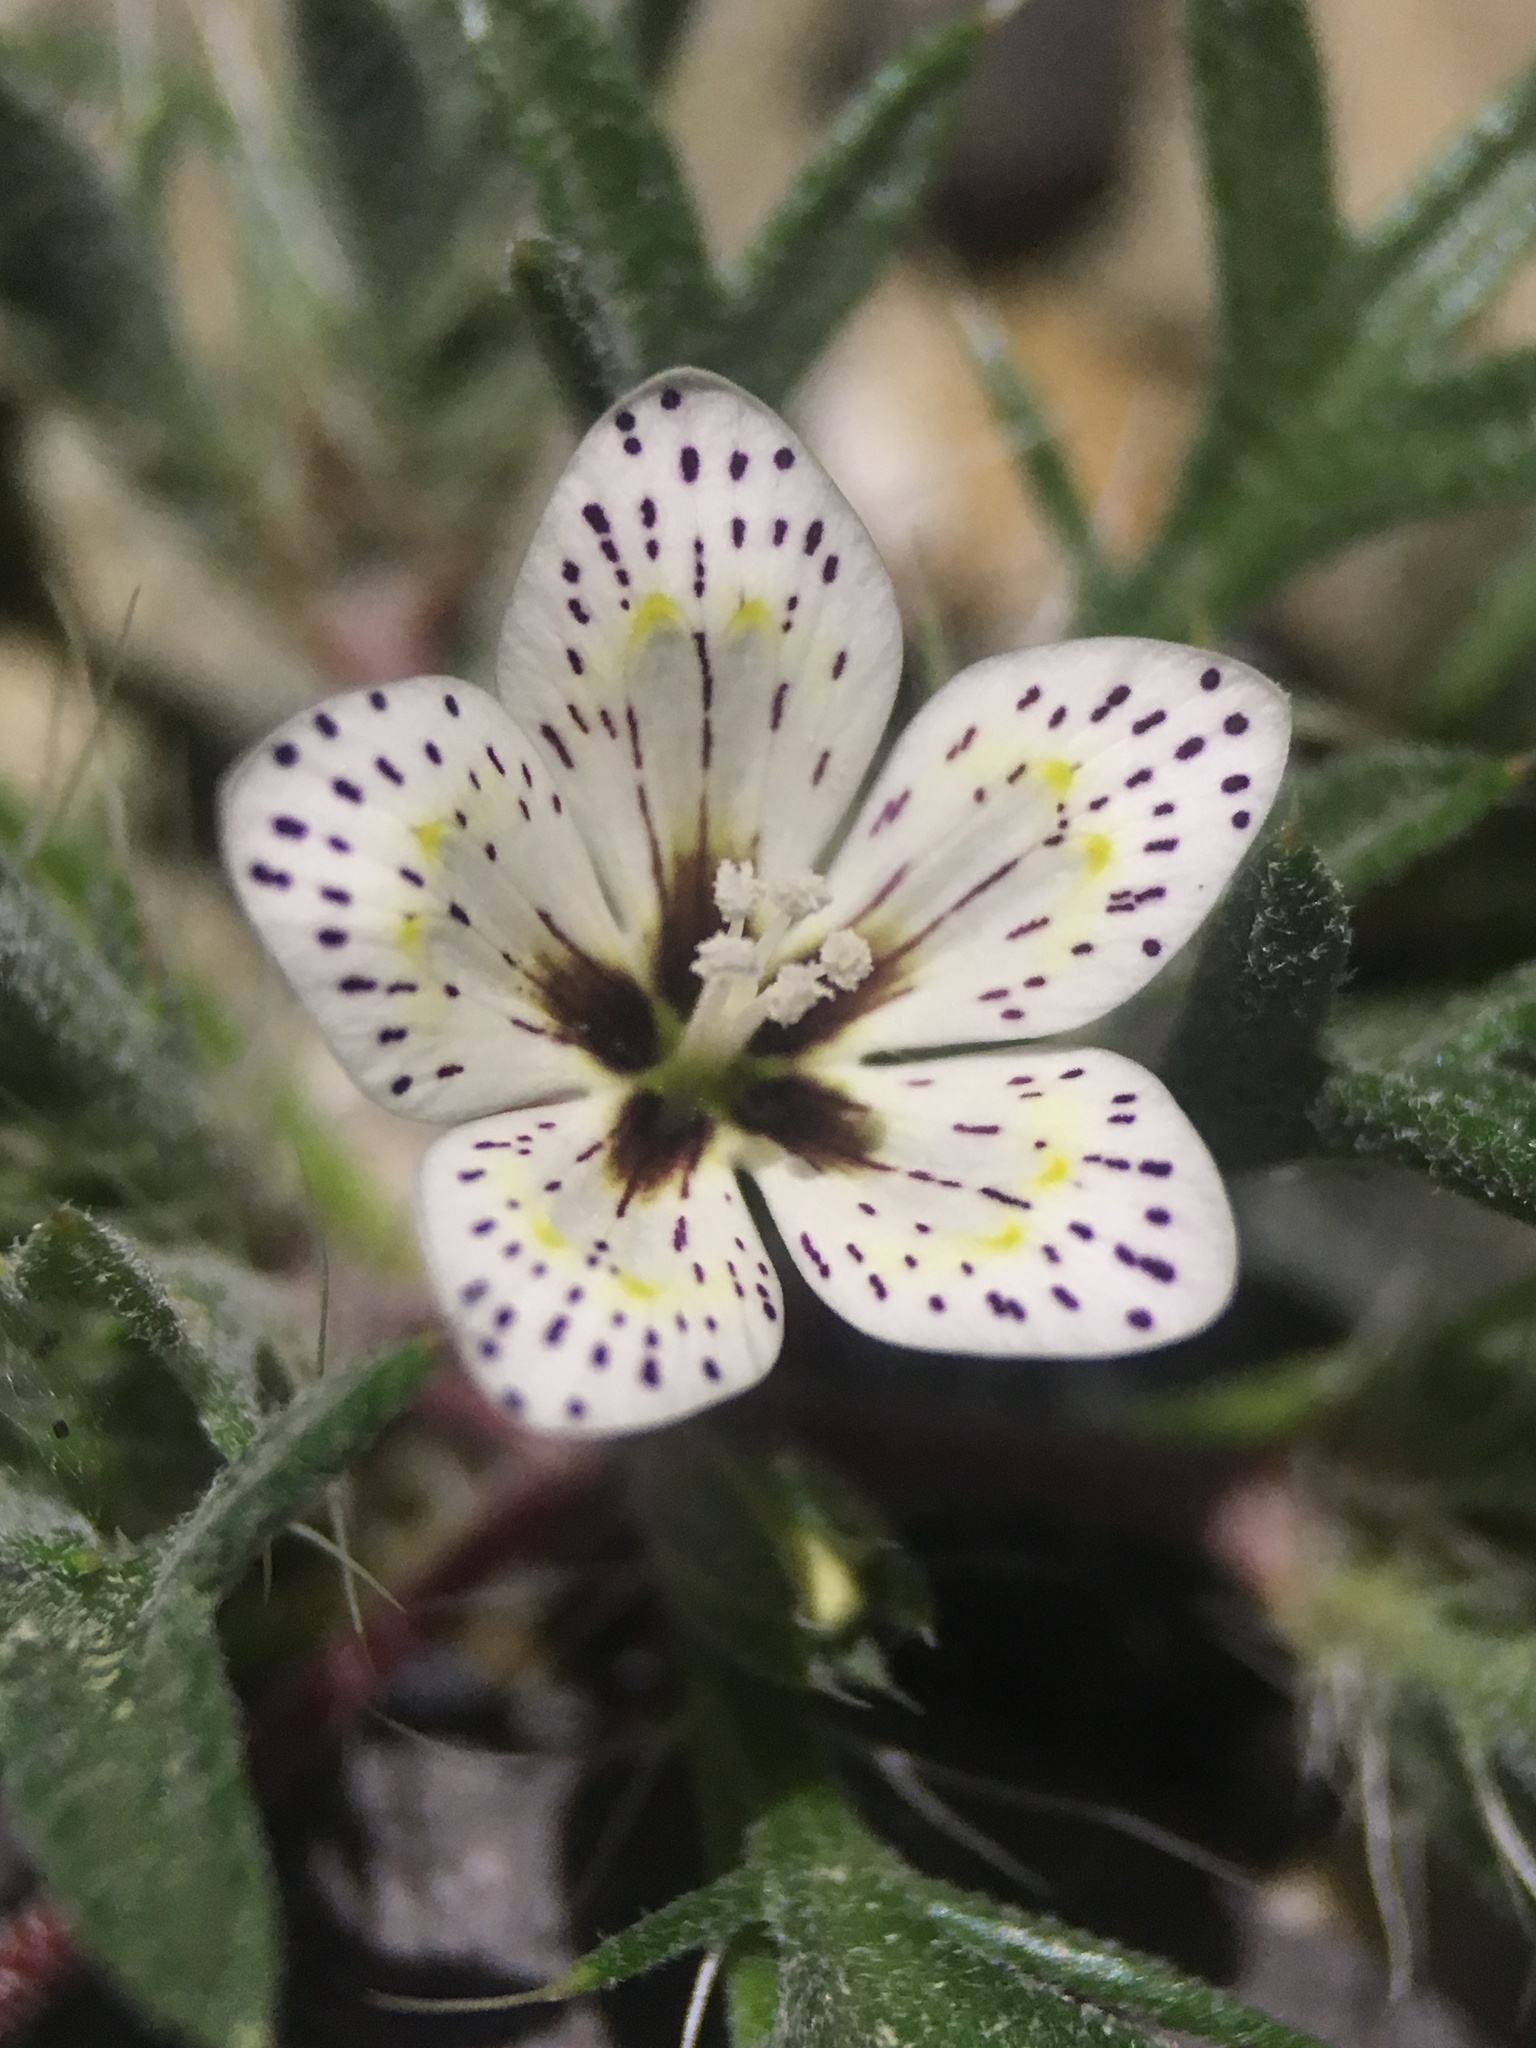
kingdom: Plantae
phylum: Tracheophyta
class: Magnoliopsida
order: Ericales
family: Polemoniaceae
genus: Langloisia
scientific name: Langloisia setosissima
